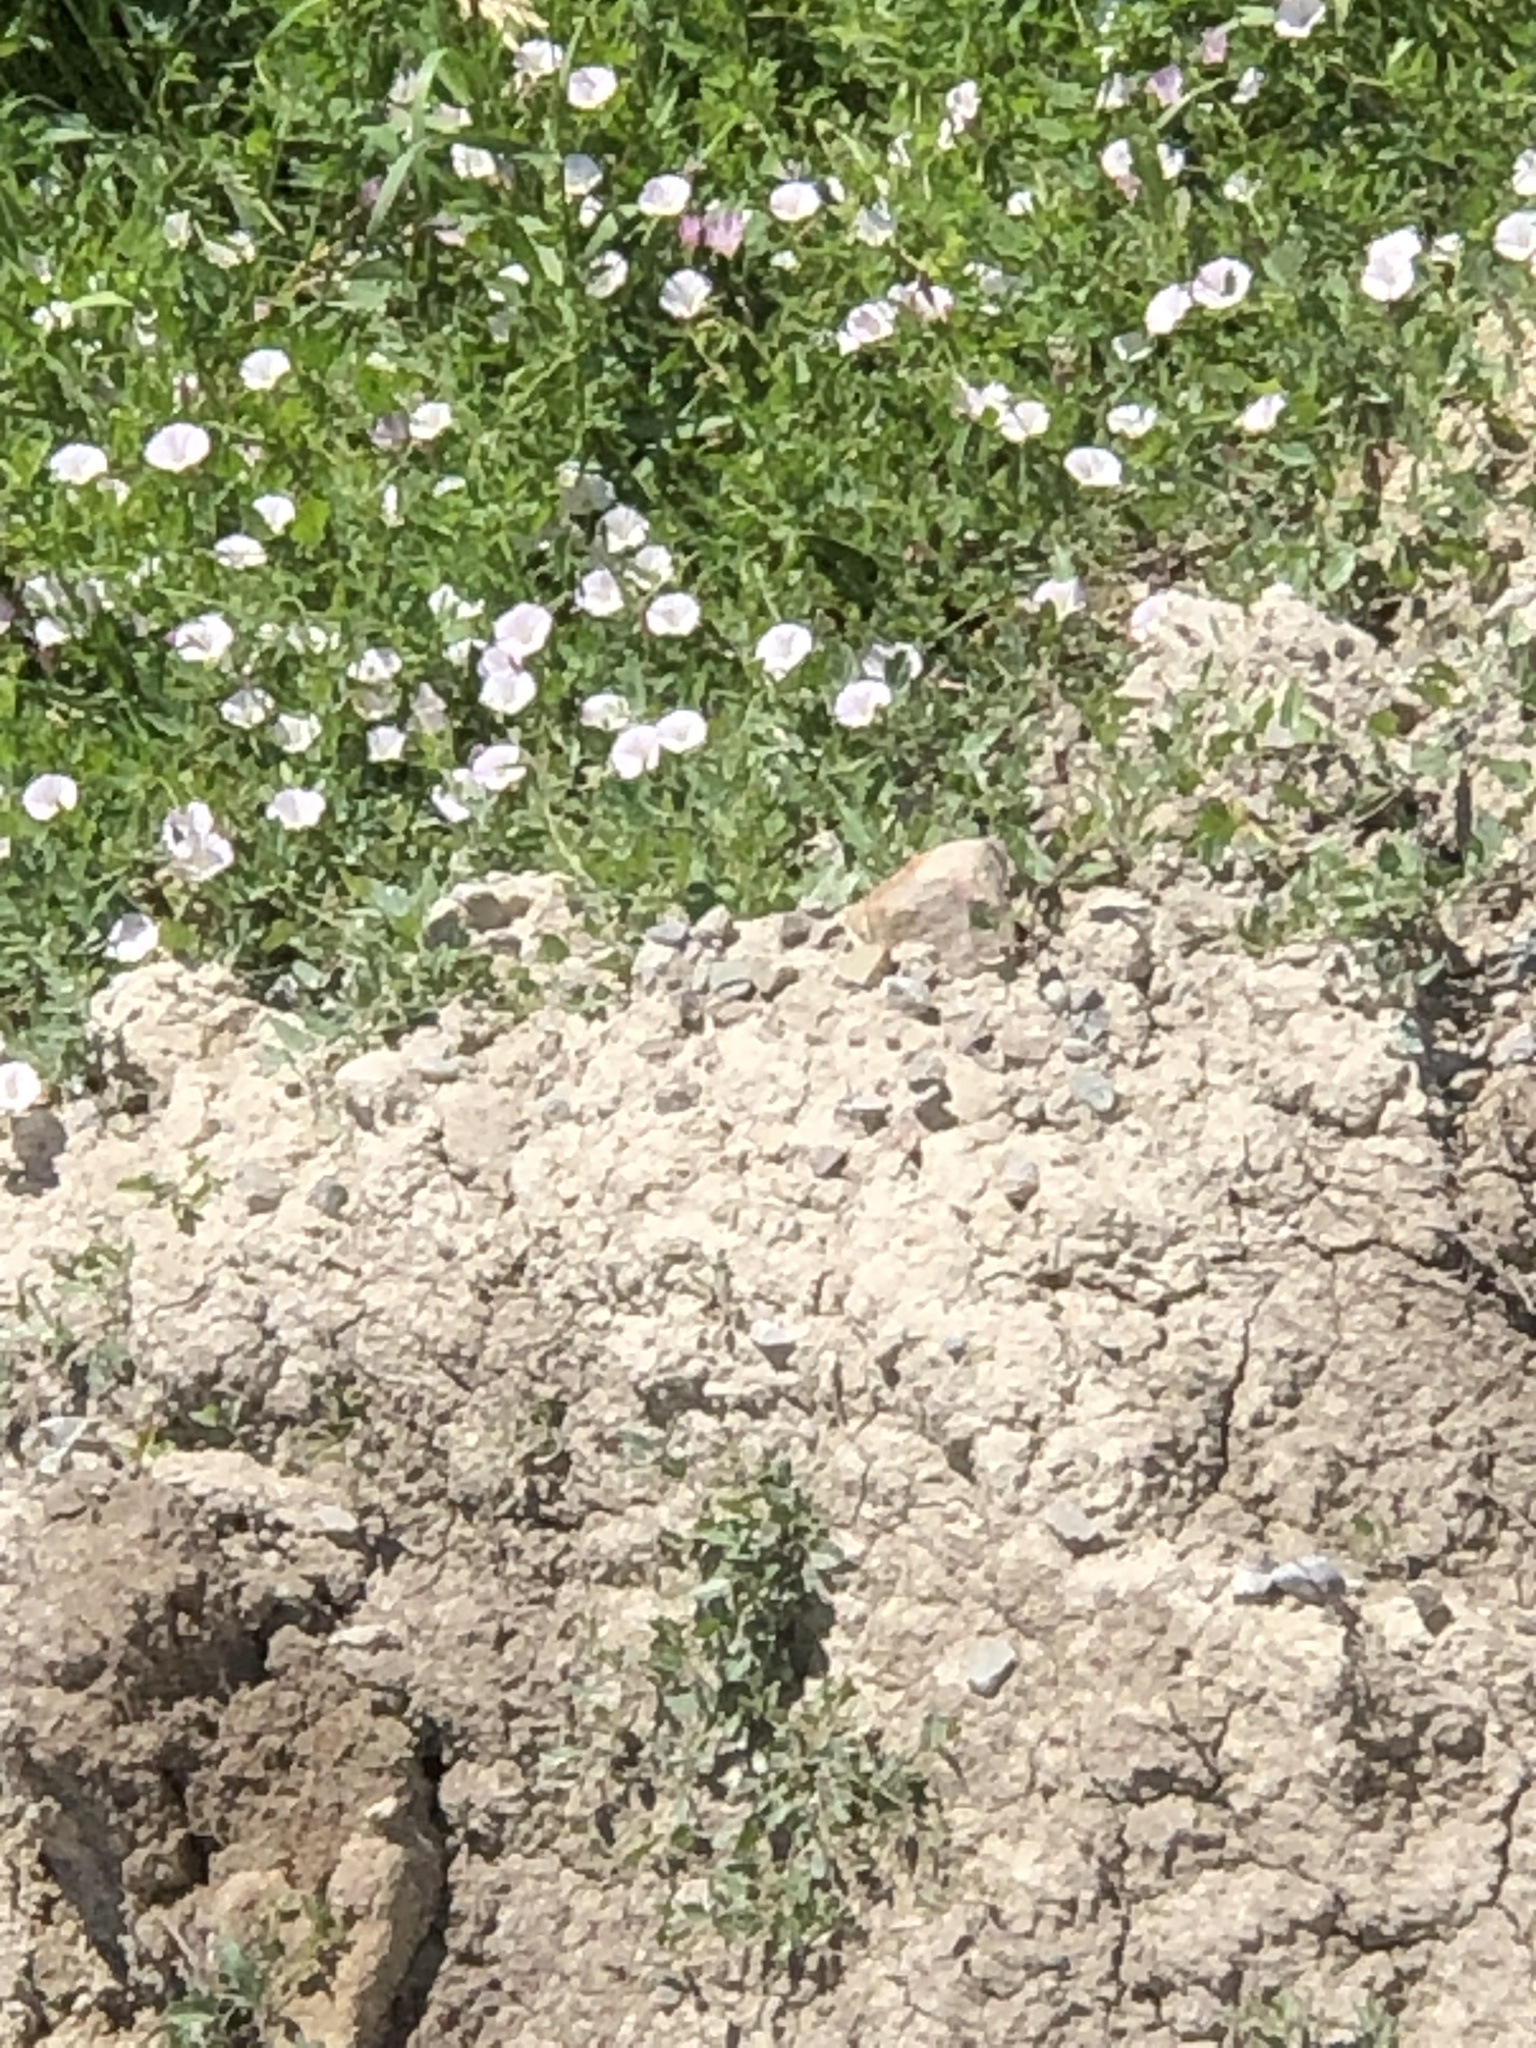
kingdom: Plantae
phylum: Tracheophyta
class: Magnoliopsida
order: Solanales
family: Convolvulaceae
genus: Convolvulus
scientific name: Convolvulus arvensis
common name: Field bindweed
